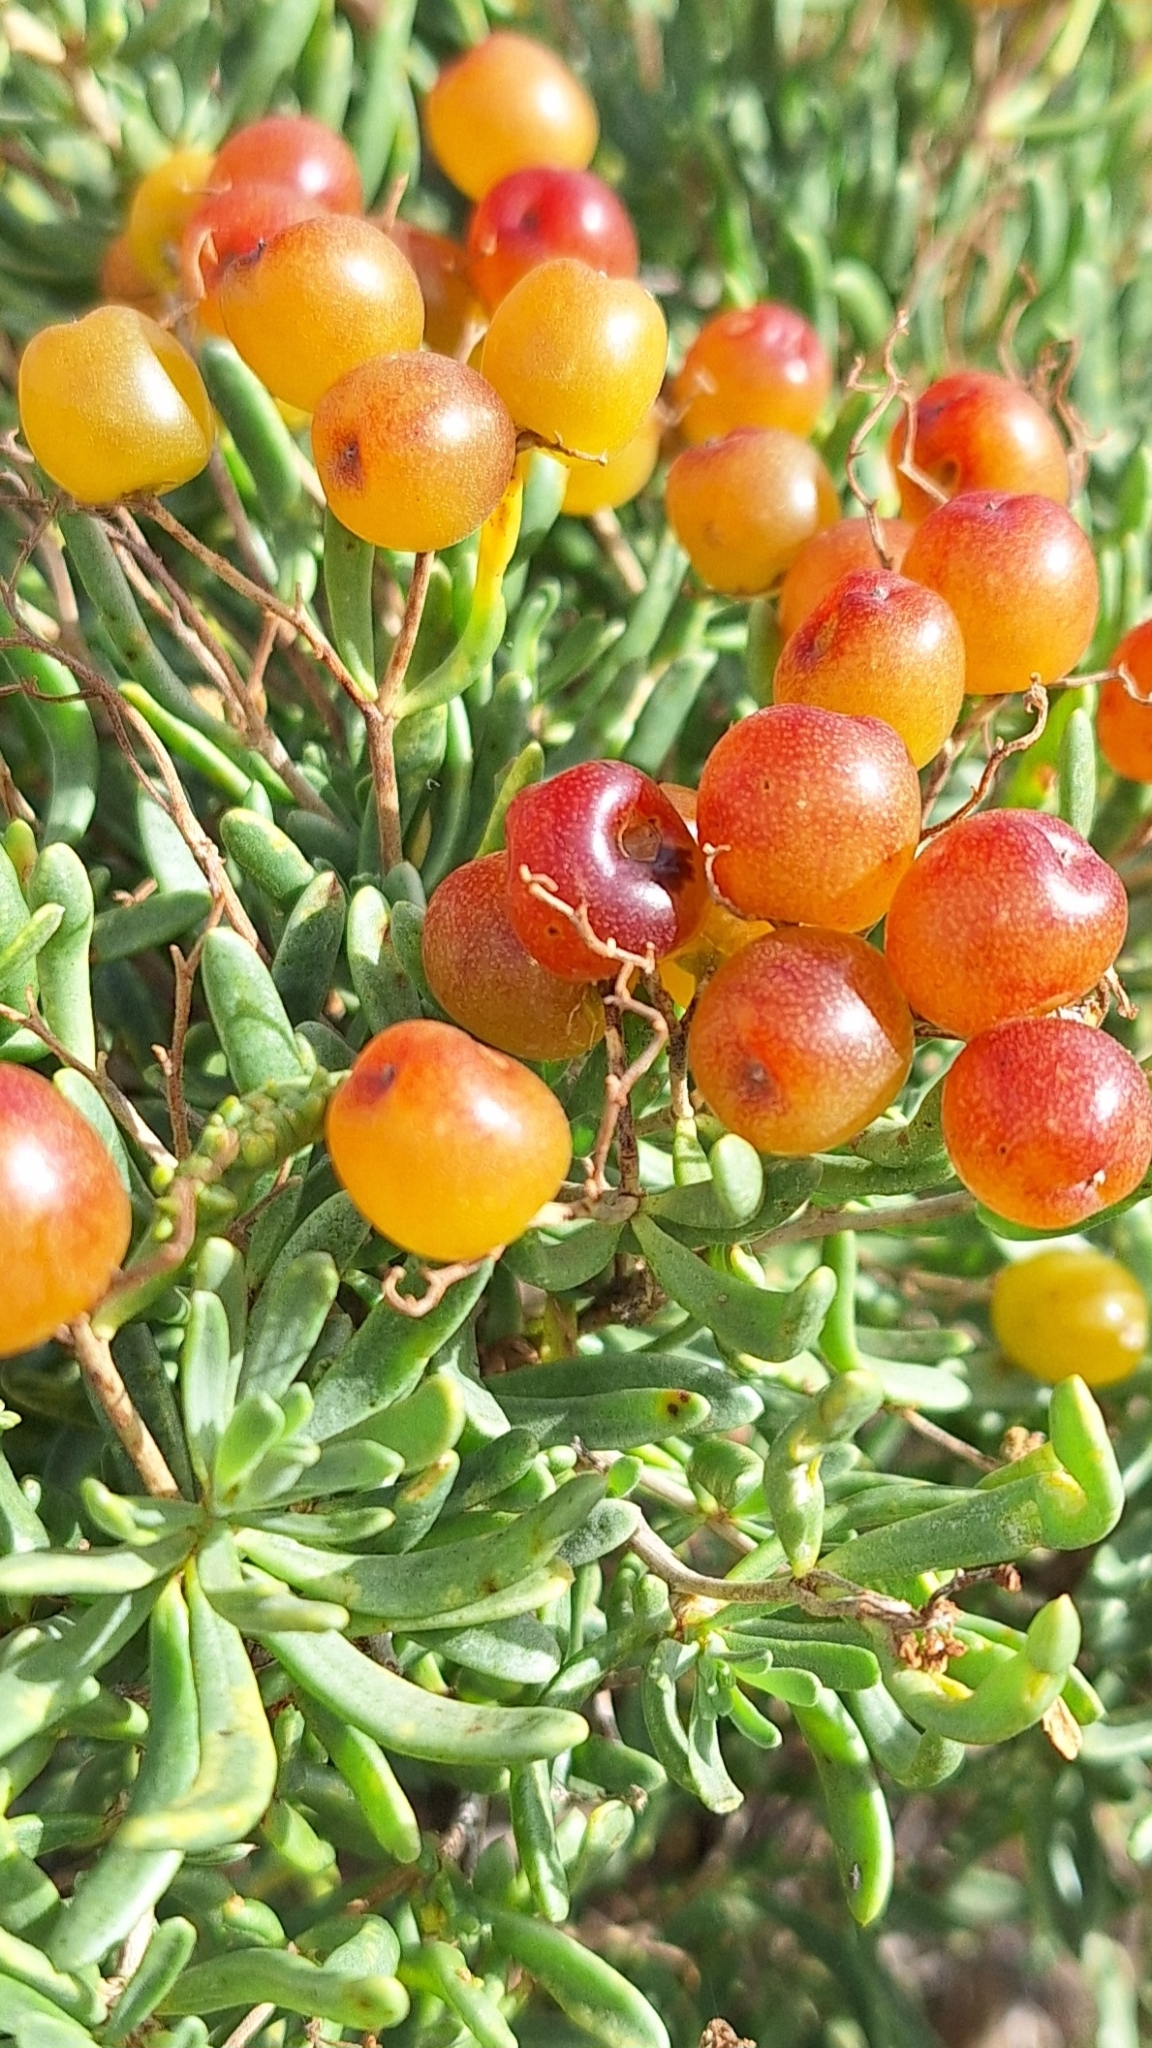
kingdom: Plantae
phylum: Tracheophyta
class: Magnoliopsida
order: Sapindales
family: Nitrariaceae
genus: Nitraria
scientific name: Nitraria billardierei
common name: Dillonbush
